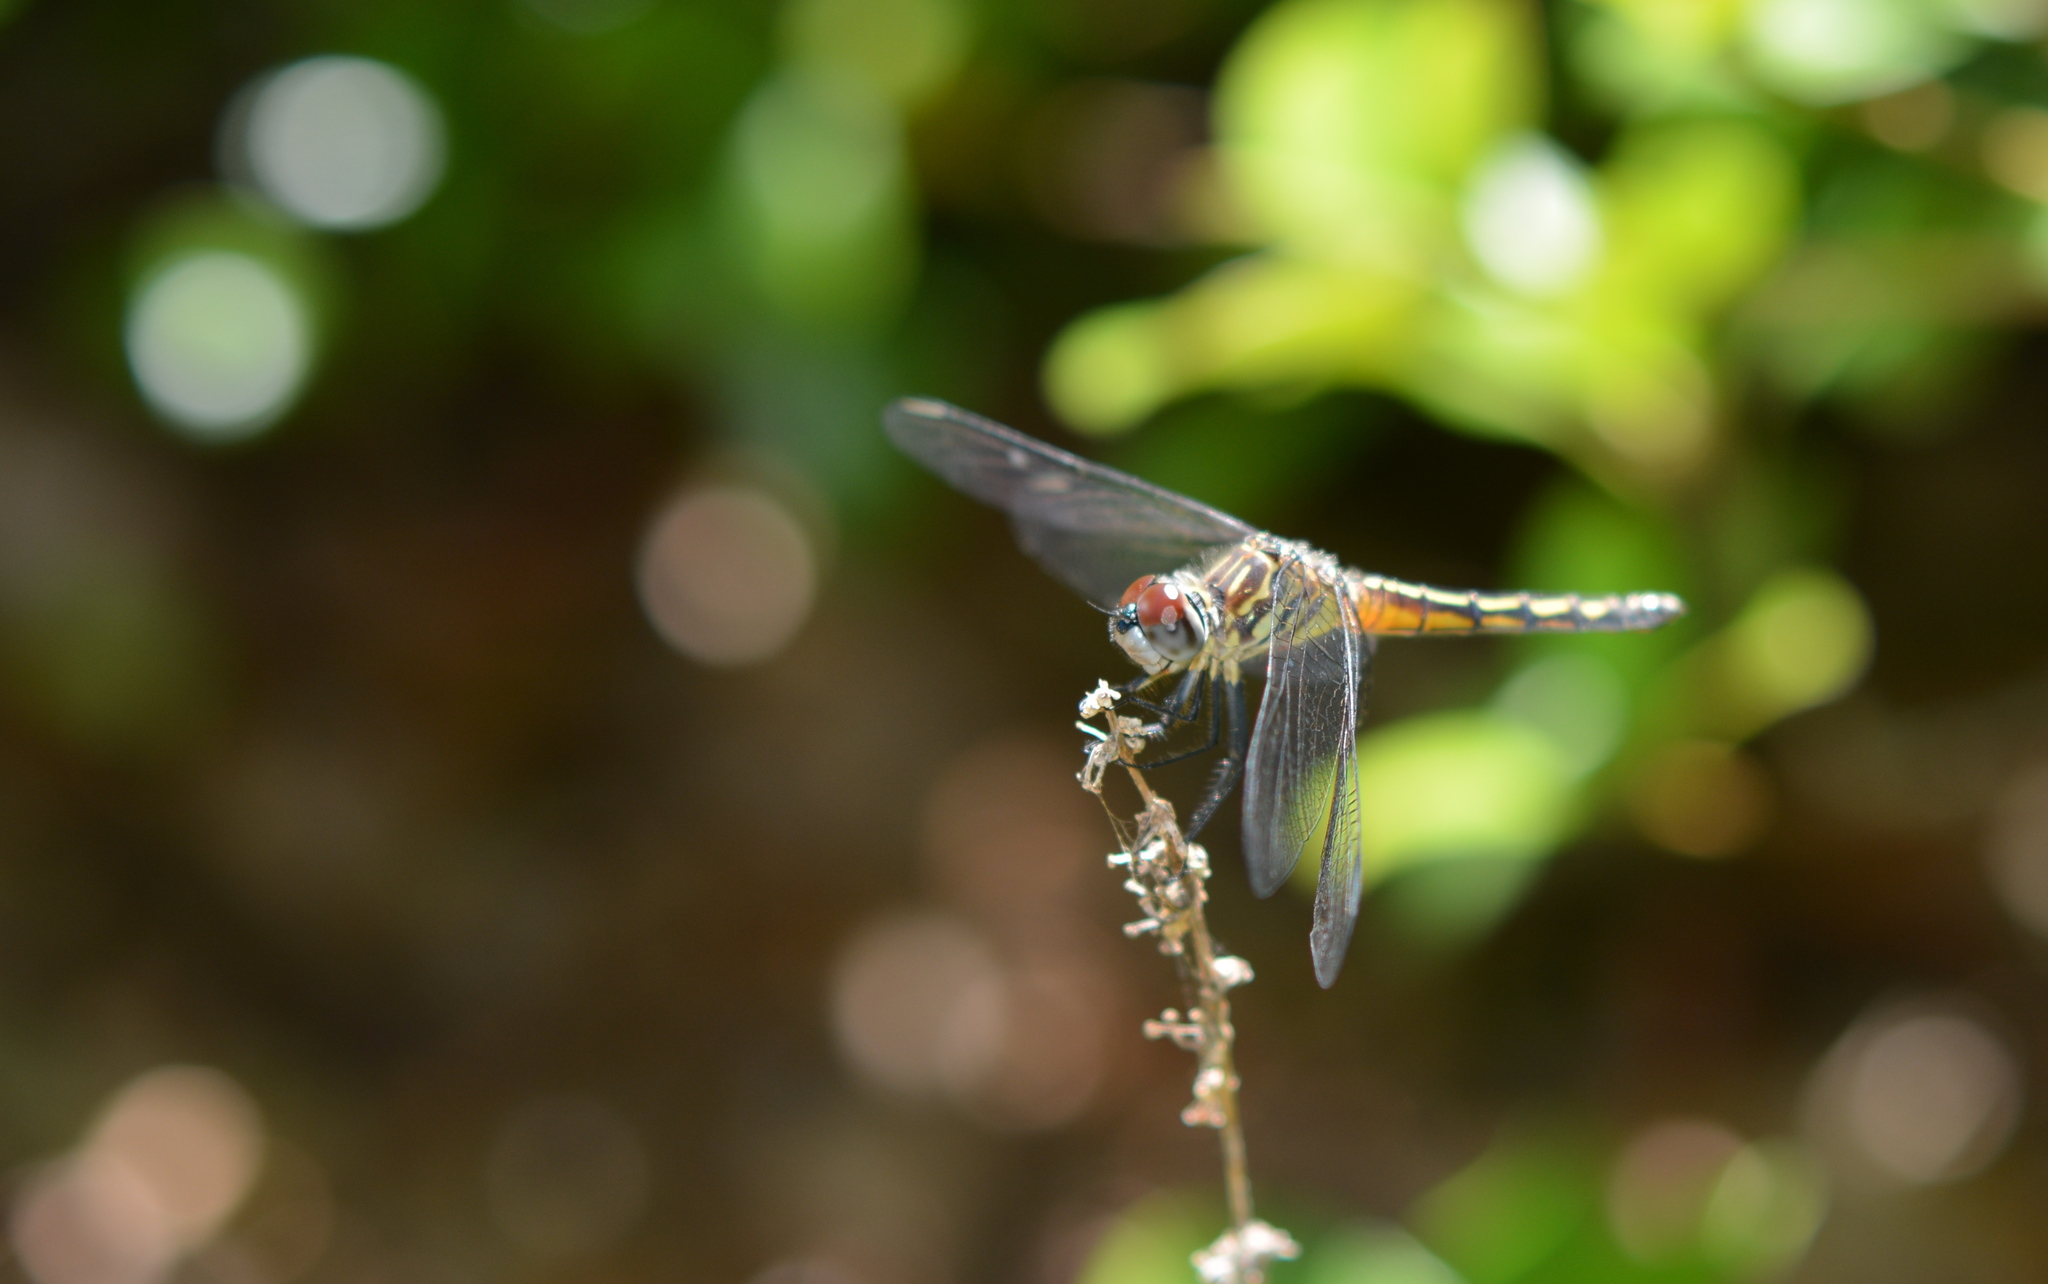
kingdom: Animalia
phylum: Arthropoda
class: Insecta
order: Odonata
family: Libellulidae
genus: Pachydiplax
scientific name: Pachydiplax longipennis
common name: Blue dasher
